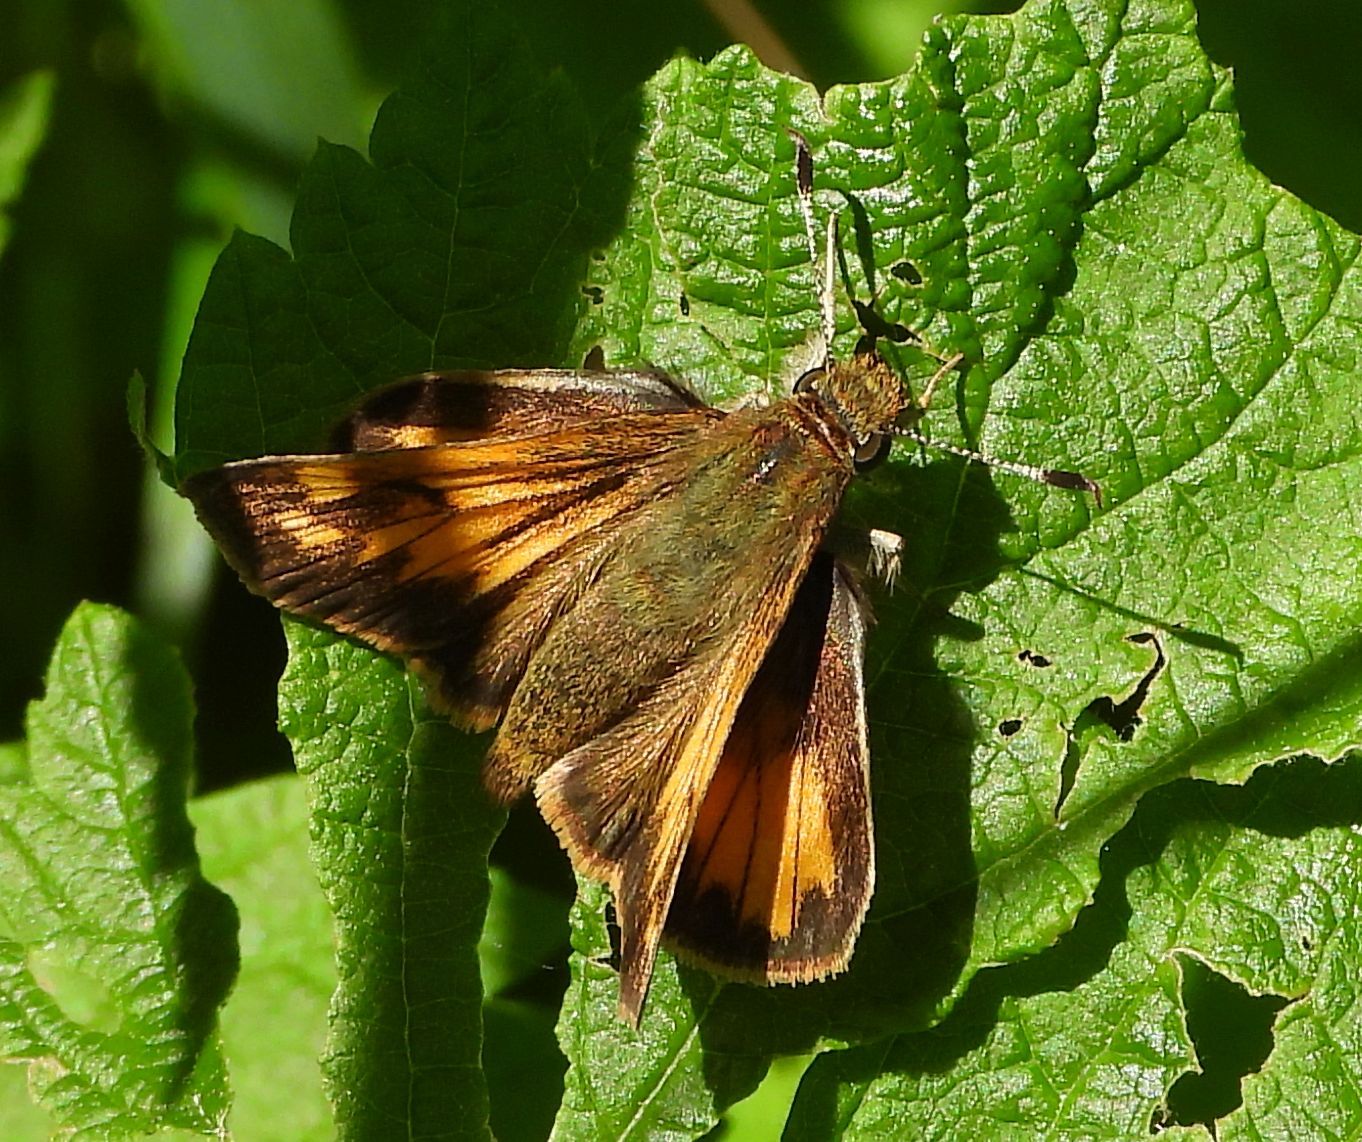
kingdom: Animalia
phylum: Arthropoda
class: Insecta
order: Lepidoptera
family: Hesperiidae
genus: Lon
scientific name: Lon hobomok
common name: Hobomok skipper
